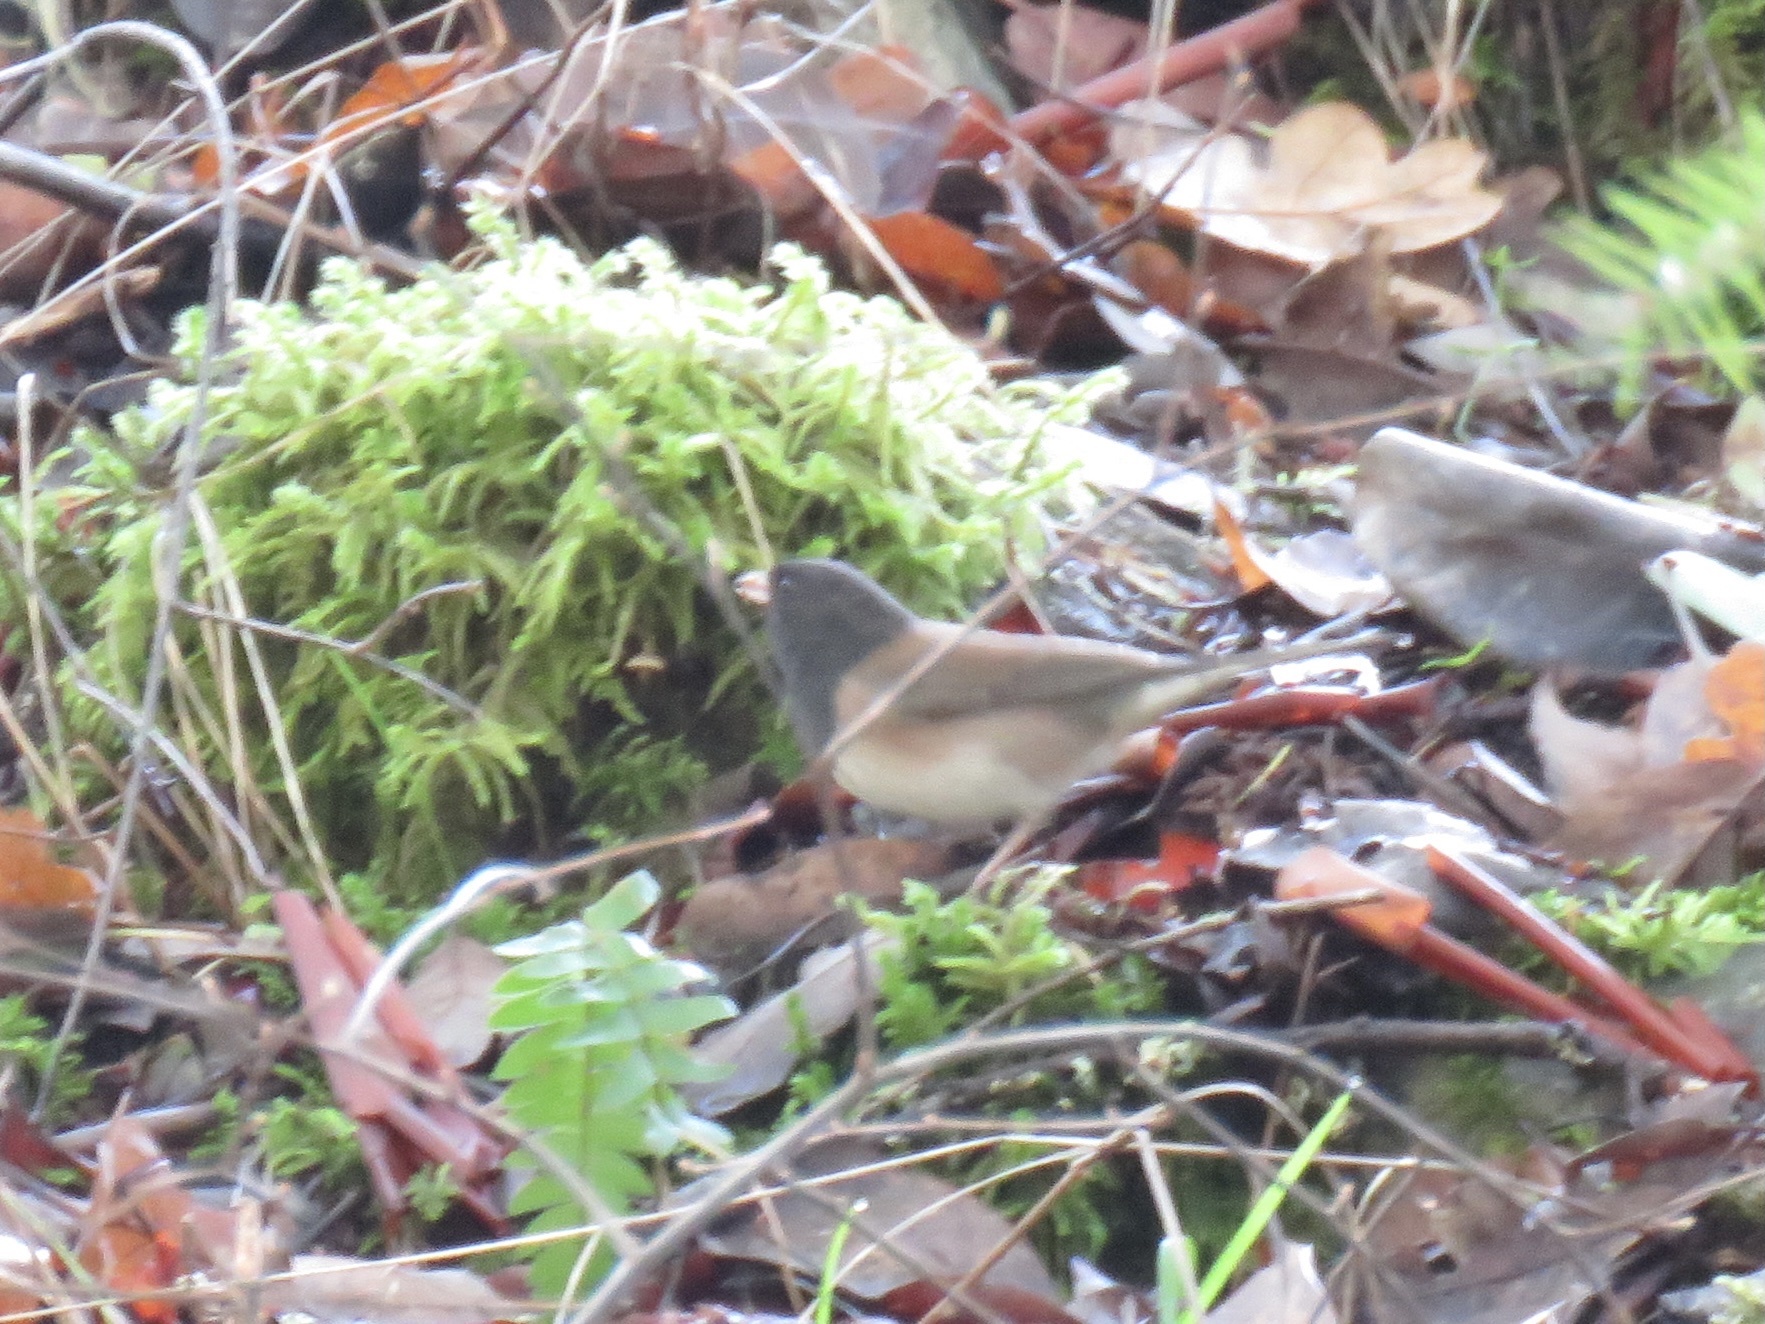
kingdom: Animalia
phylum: Chordata
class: Aves
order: Passeriformes
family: Passerellidae
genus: Junco
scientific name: Junco hyemalis
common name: Dark-eyed junco
